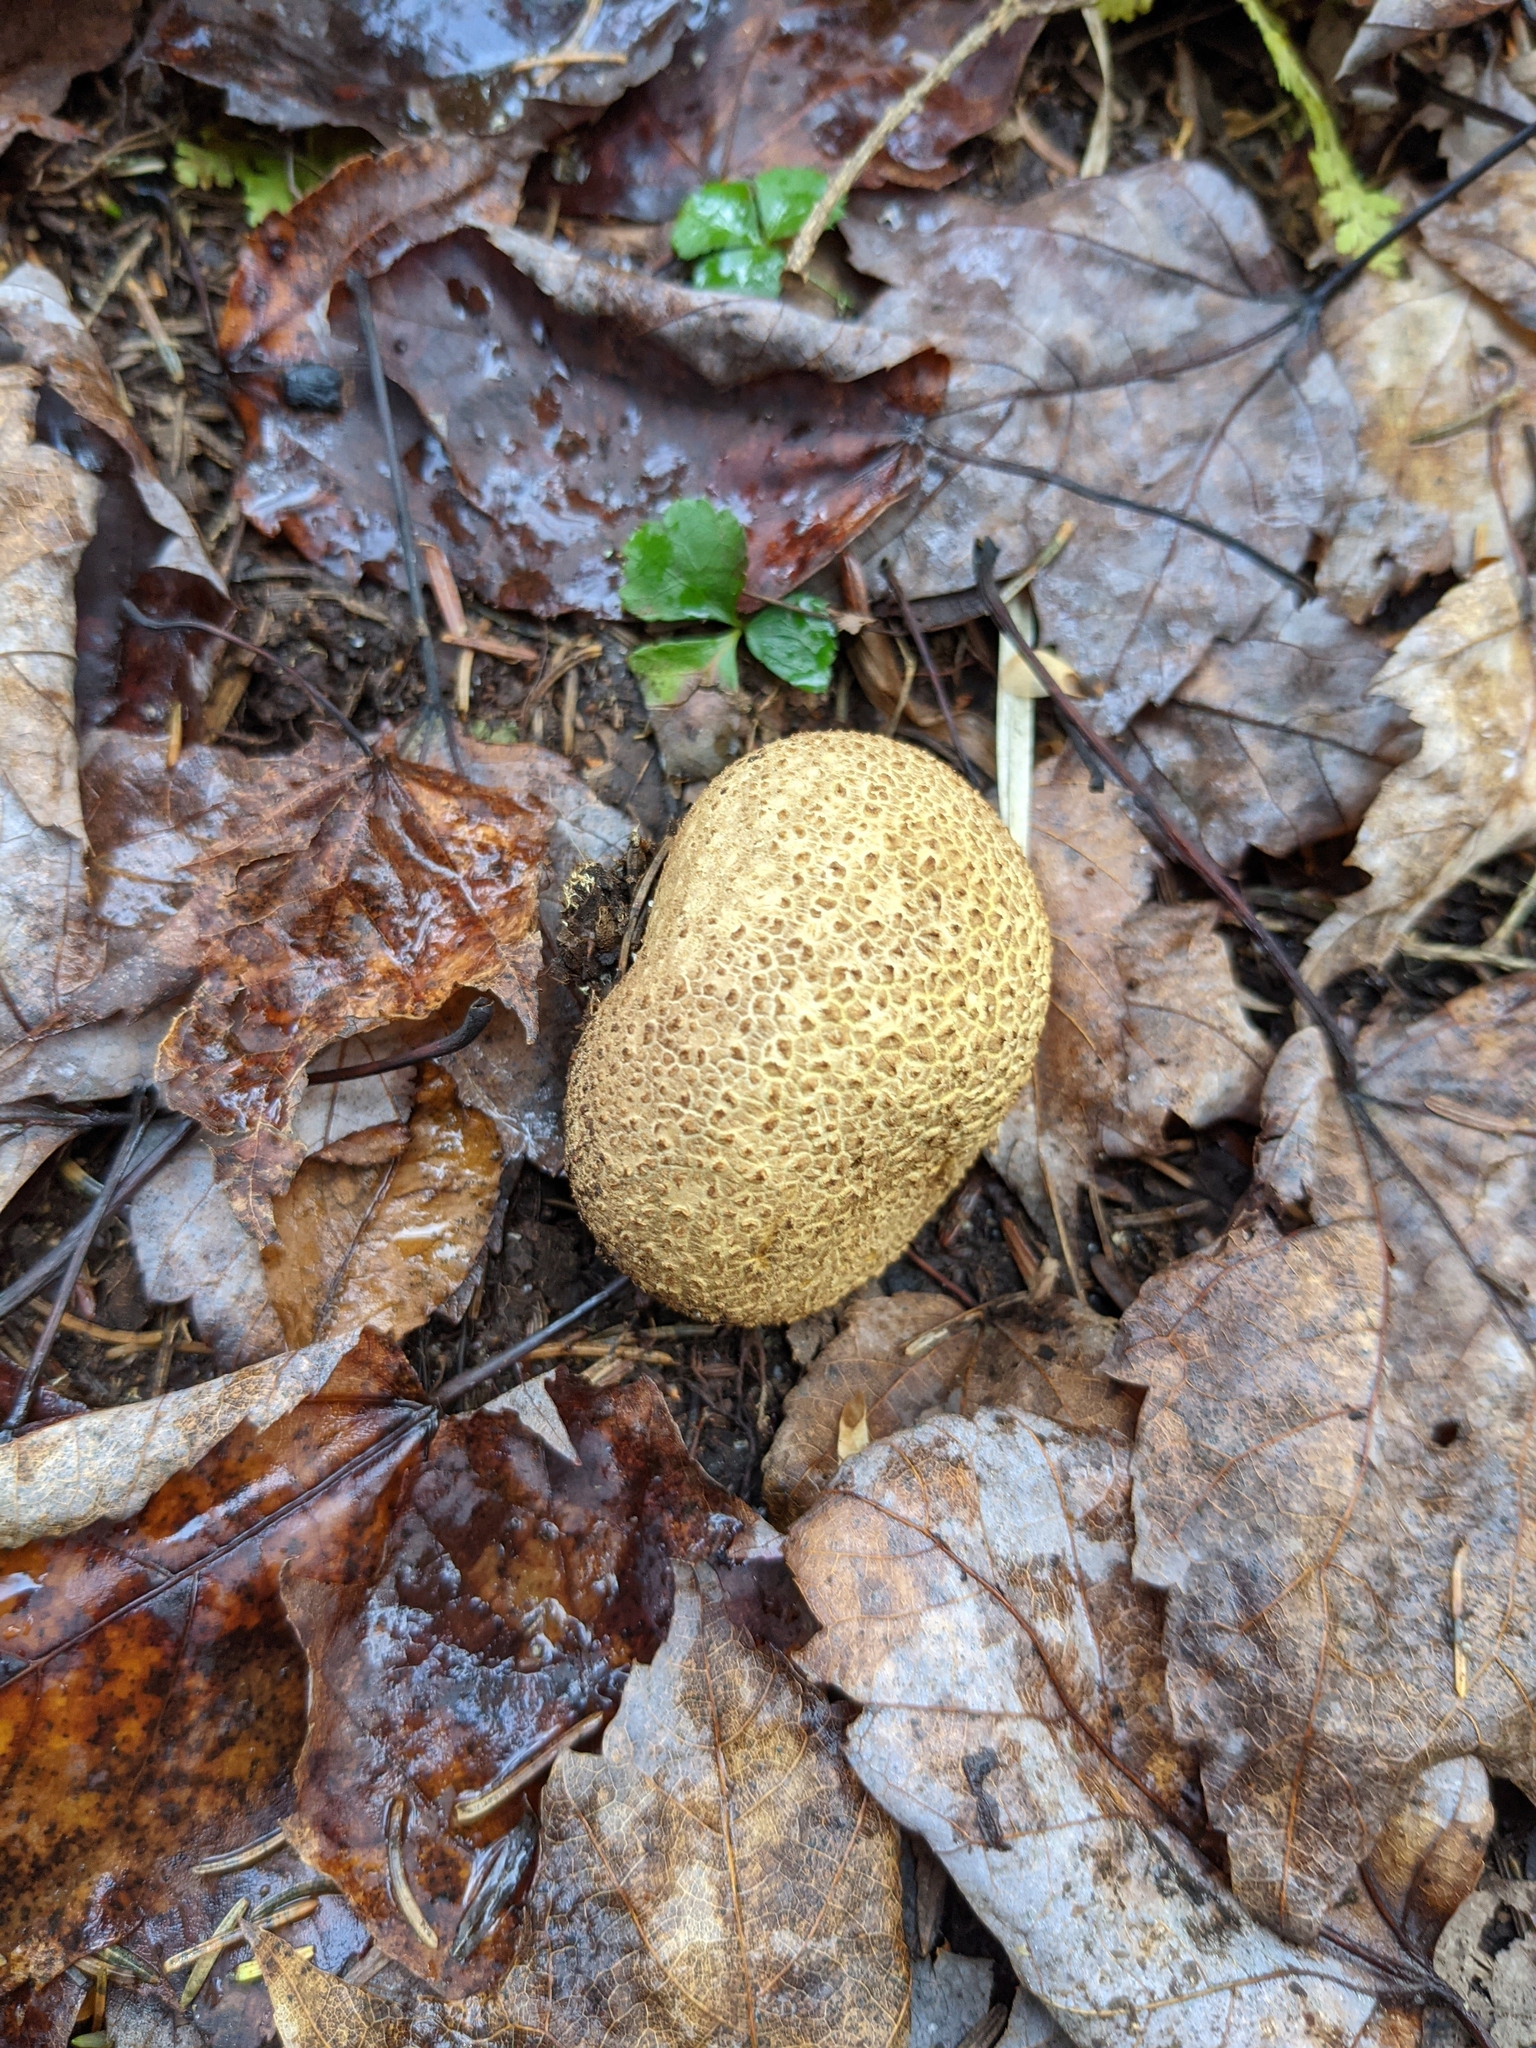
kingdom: Fungi
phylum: Basidiomycota
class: Agaricomycetes
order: Boletales
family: Sclerodermataceae
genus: Scleroderma
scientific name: Scleroderma citrinum
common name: Common earthball
